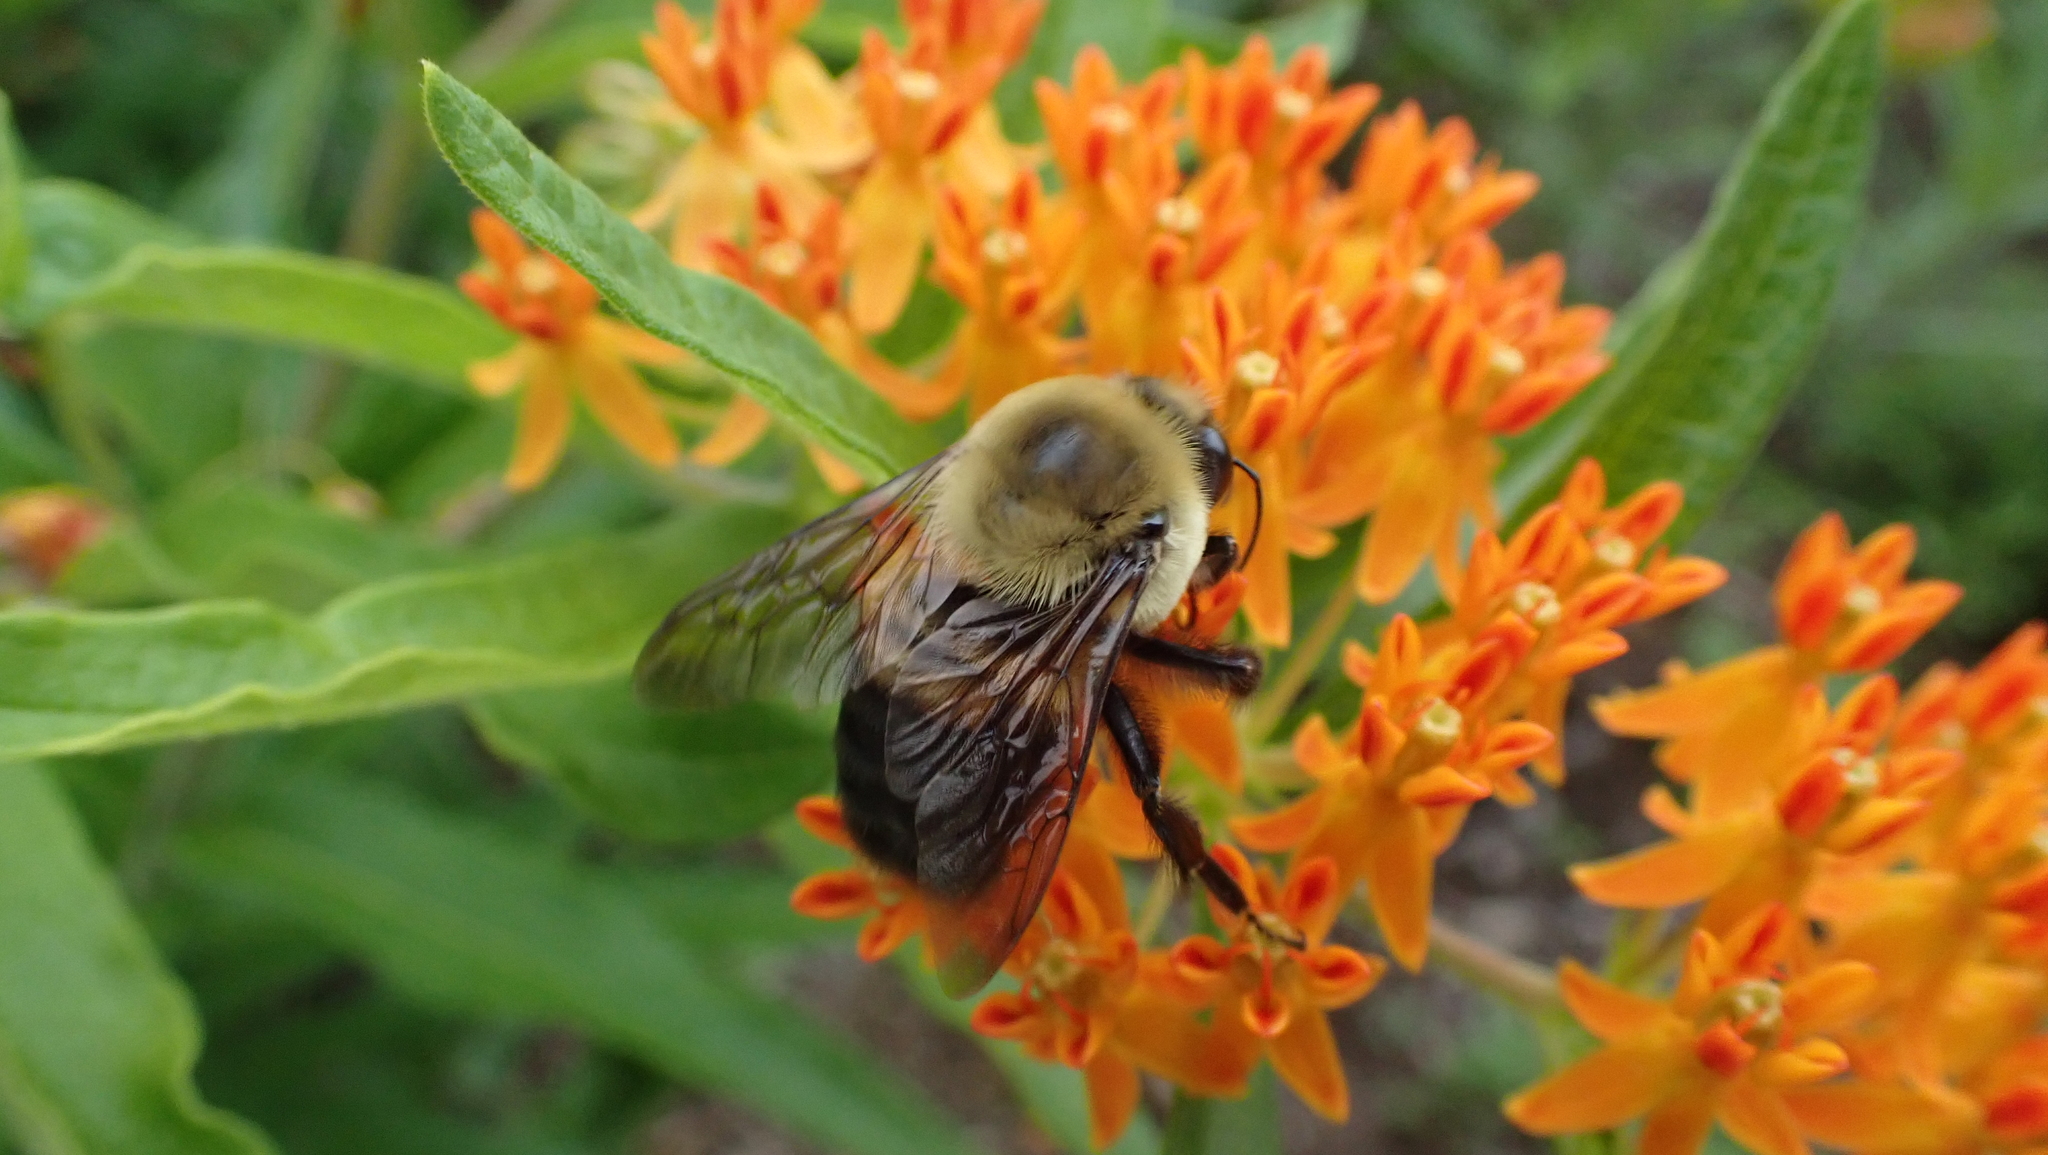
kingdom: Animalia
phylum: Arthropoda
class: Insecta
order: Hymenoptera
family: Apidae
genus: Bombus
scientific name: Bombus griseocollis
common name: Brown-belted bumble bee
